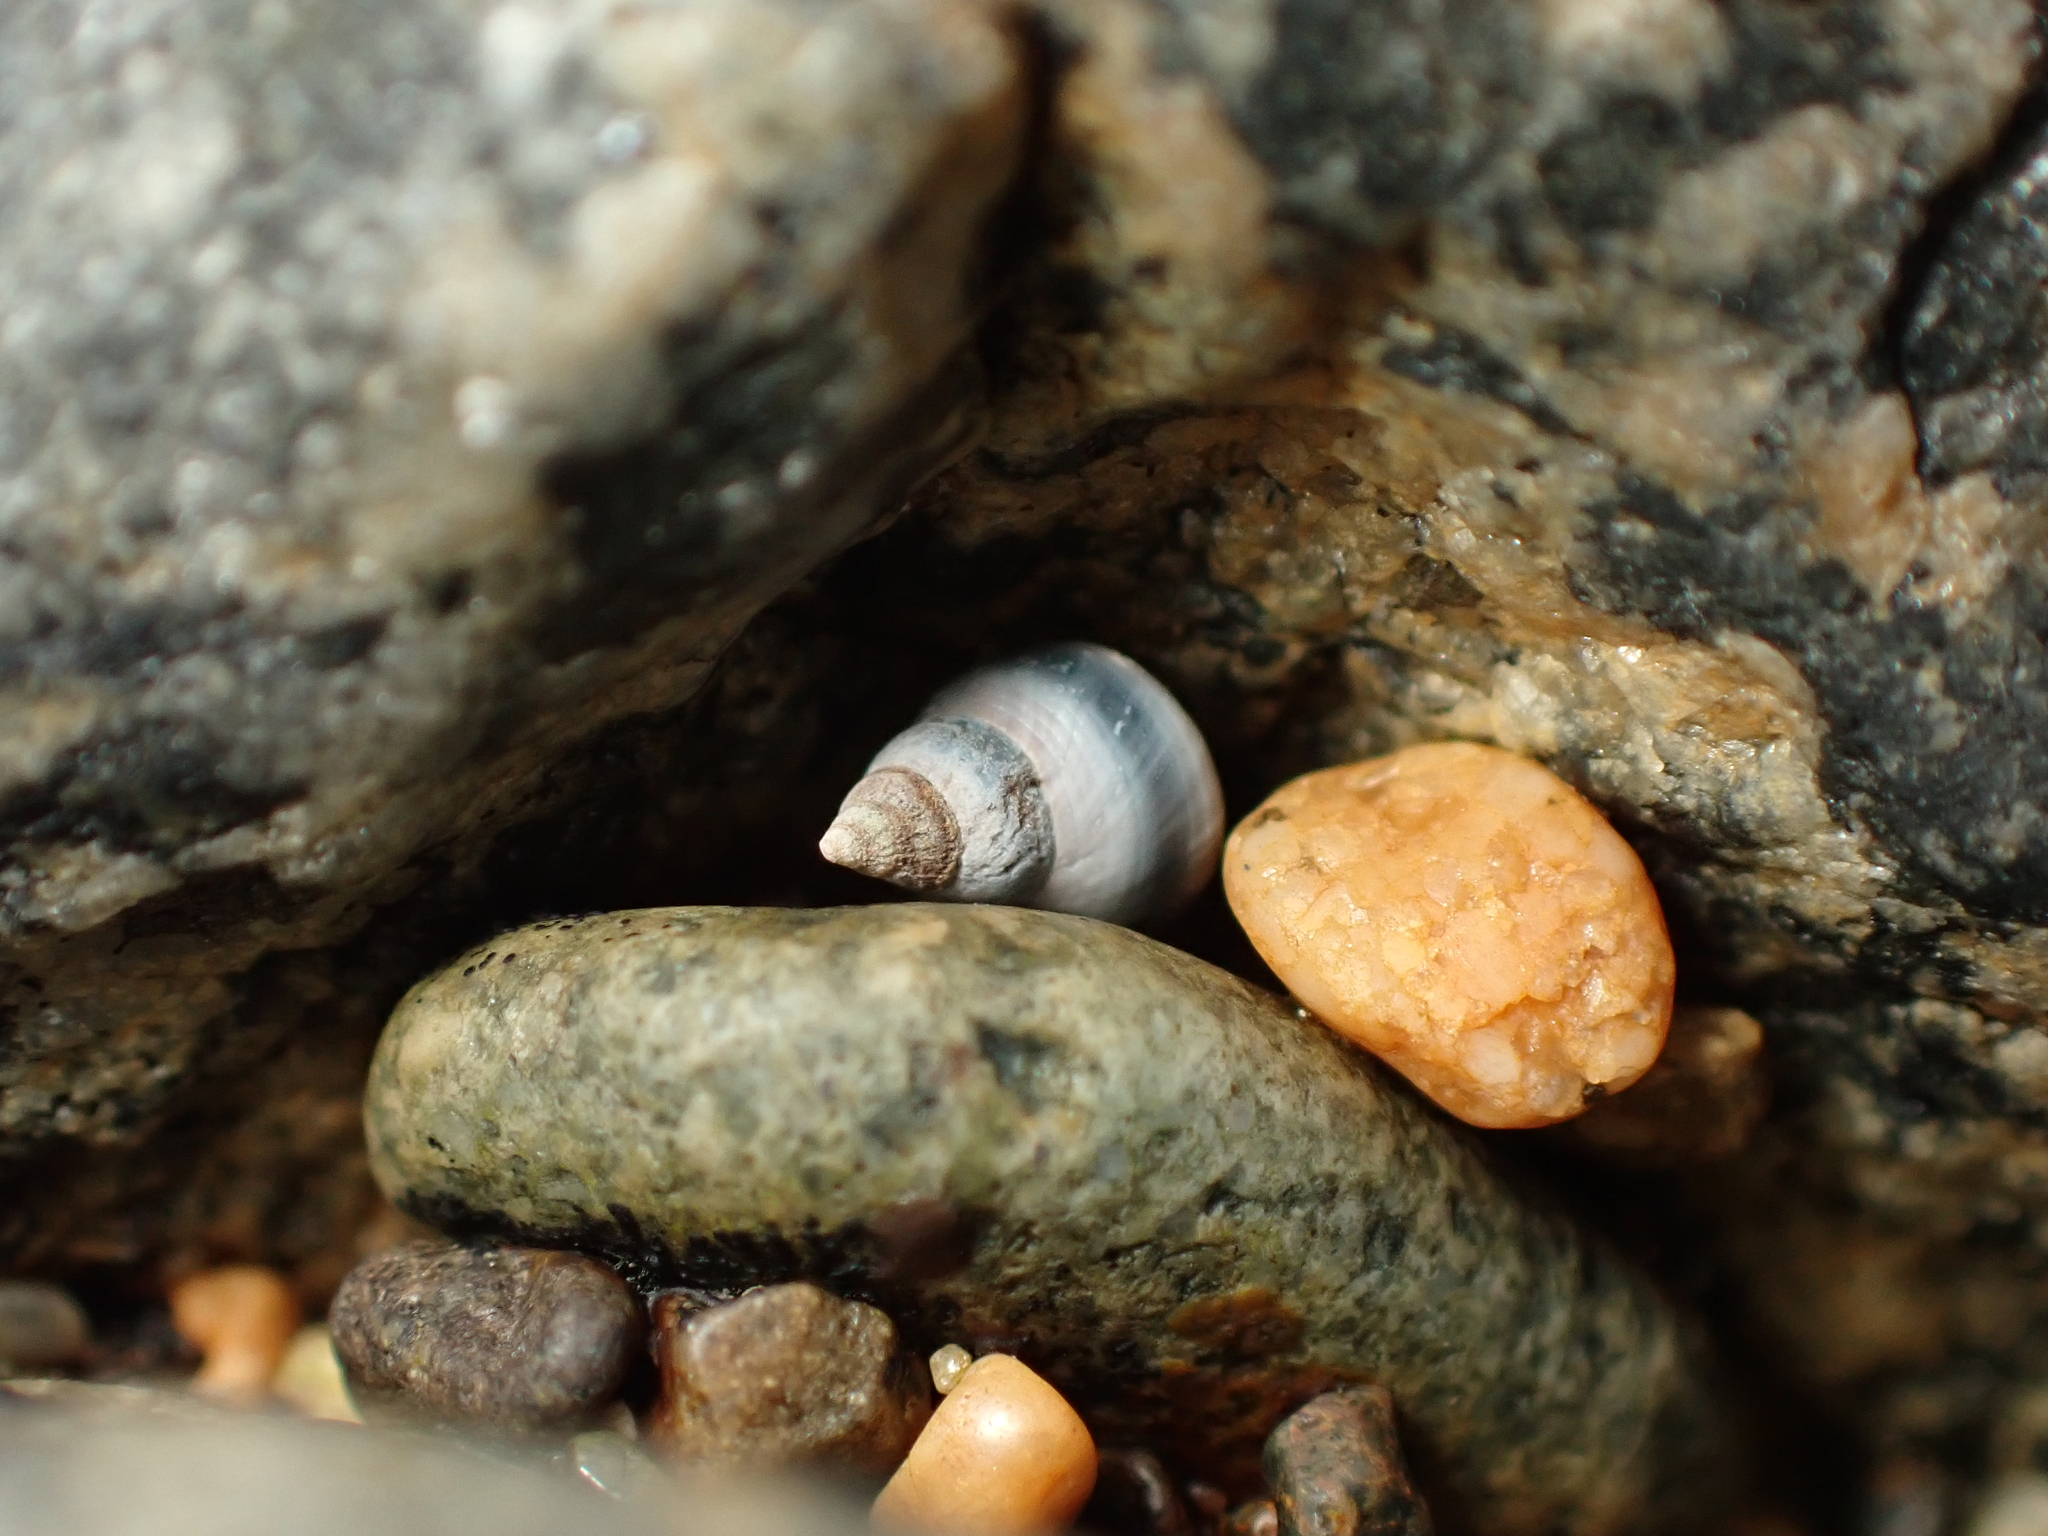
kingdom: Animalia
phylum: Mollusca
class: Gastropoda
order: Littorinimorpha
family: Littorinidae
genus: Austrolittorina
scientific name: Austrolittorina antipodum
